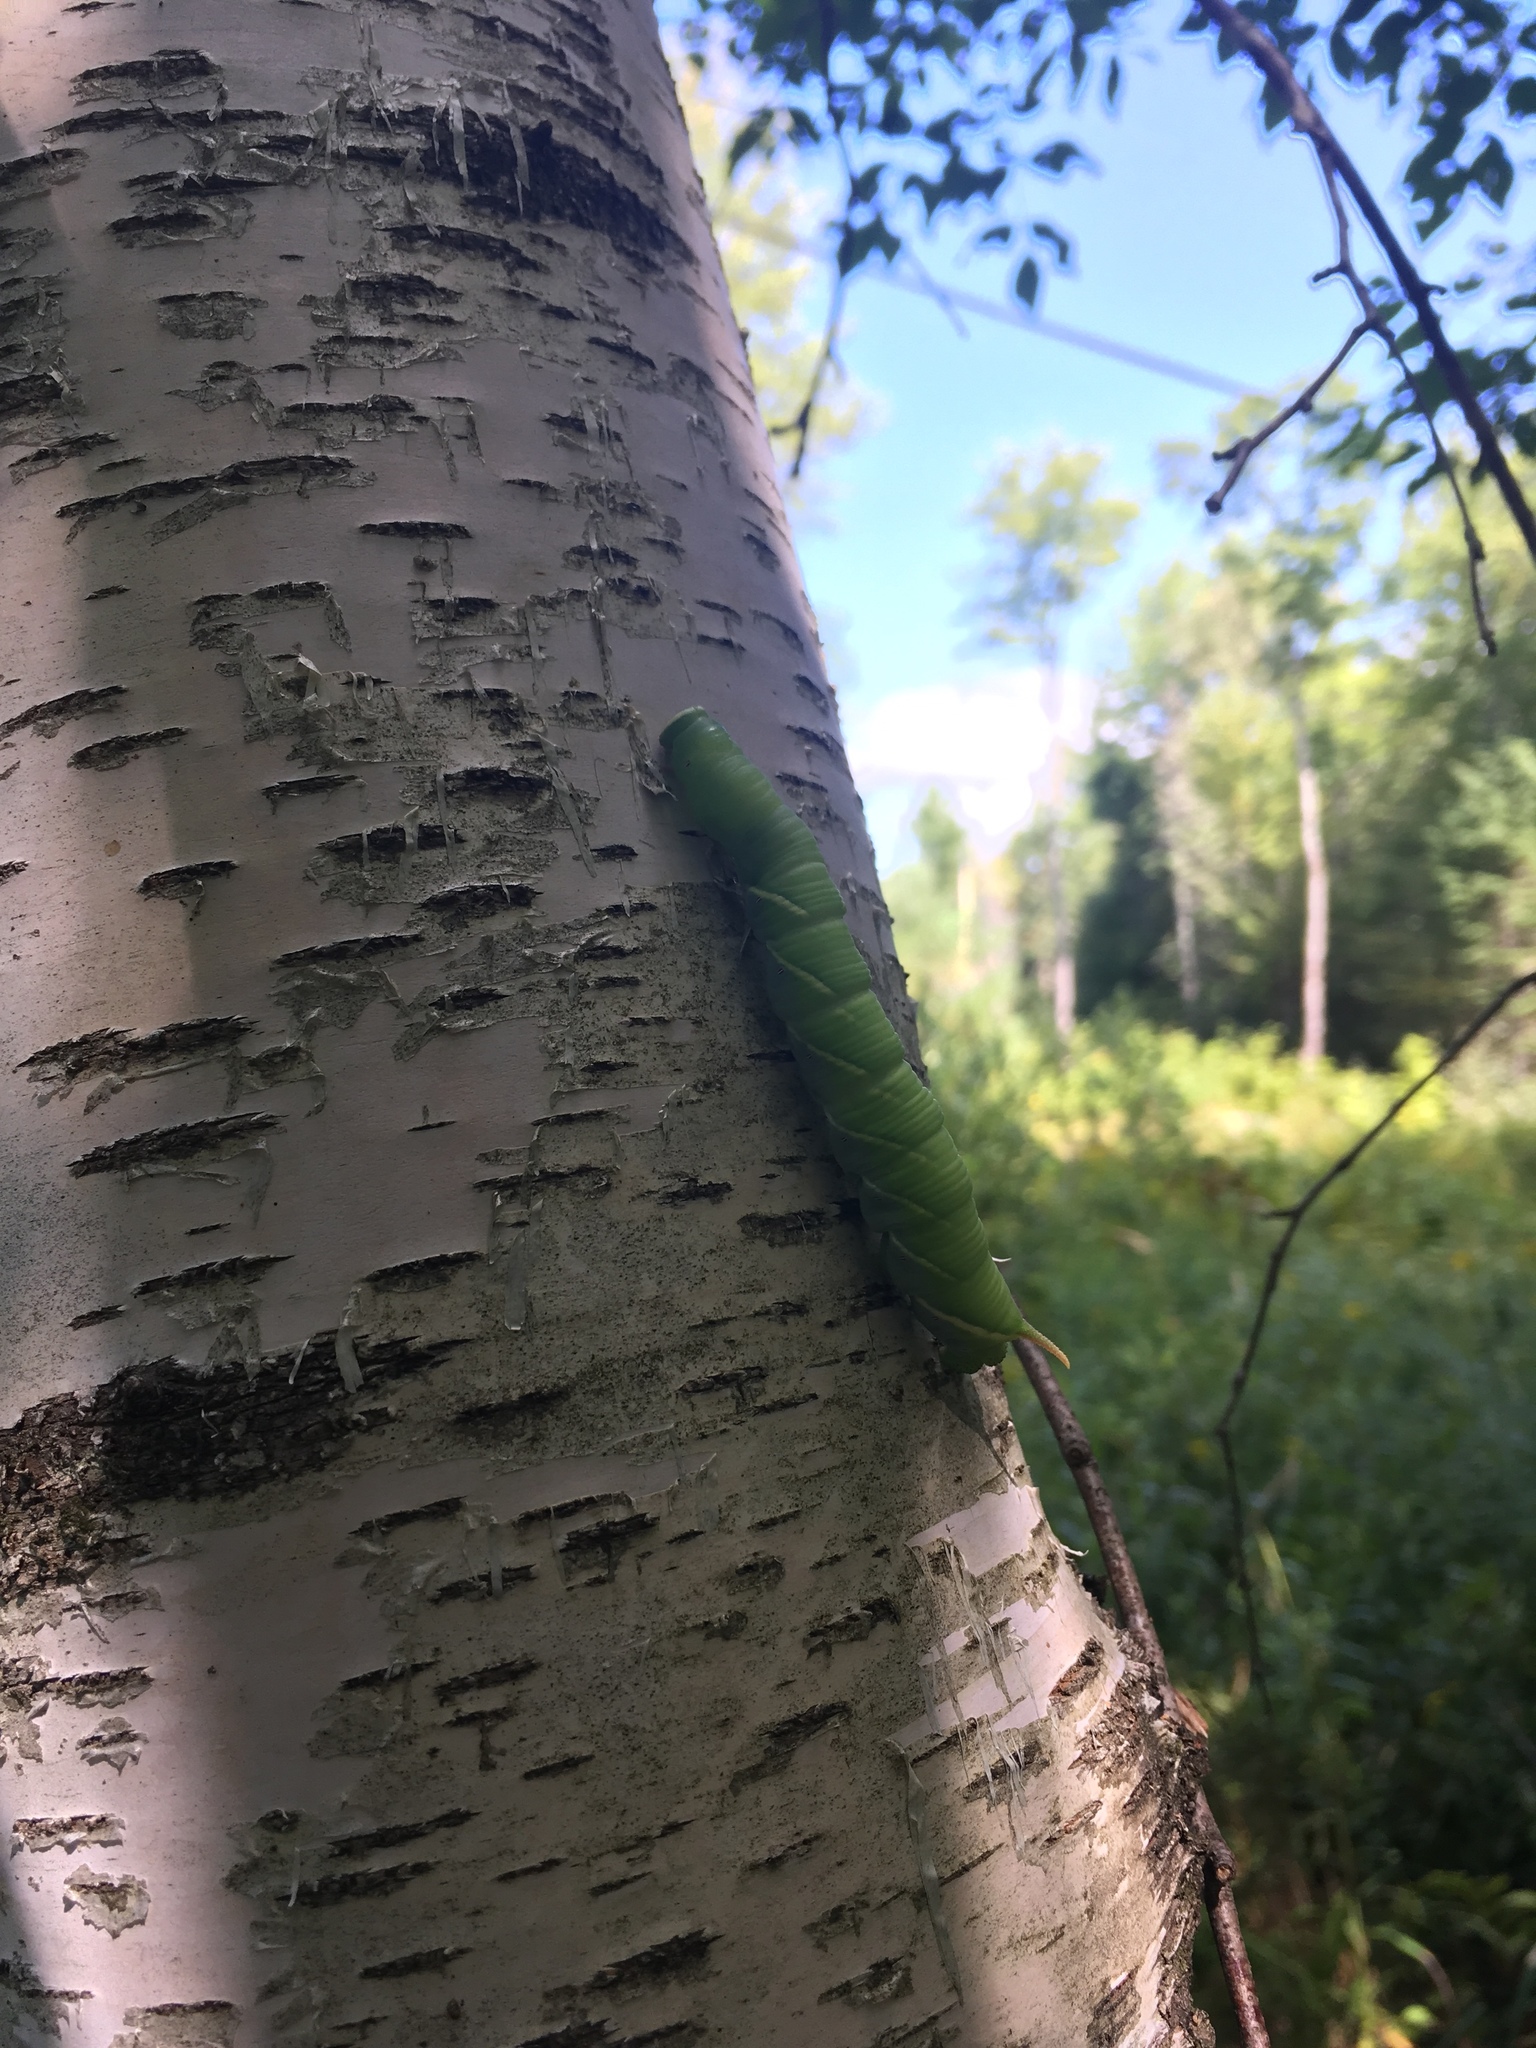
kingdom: Animalia
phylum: Arthropoda
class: Insecta
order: Lepidoptera
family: Sphingidae
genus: Ceratomia
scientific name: Ceratomia undulosa
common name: Waved sphinx
